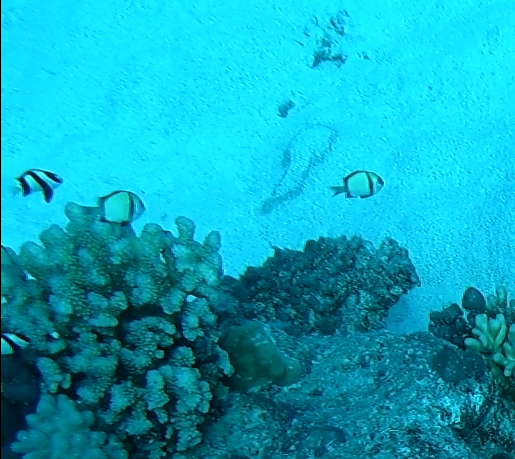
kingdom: Animalia
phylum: Chordata
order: Perciformes
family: Pomacentridae
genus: Dascyllus
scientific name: Dascyllus reticulatus
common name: Reticulated dascyllus
